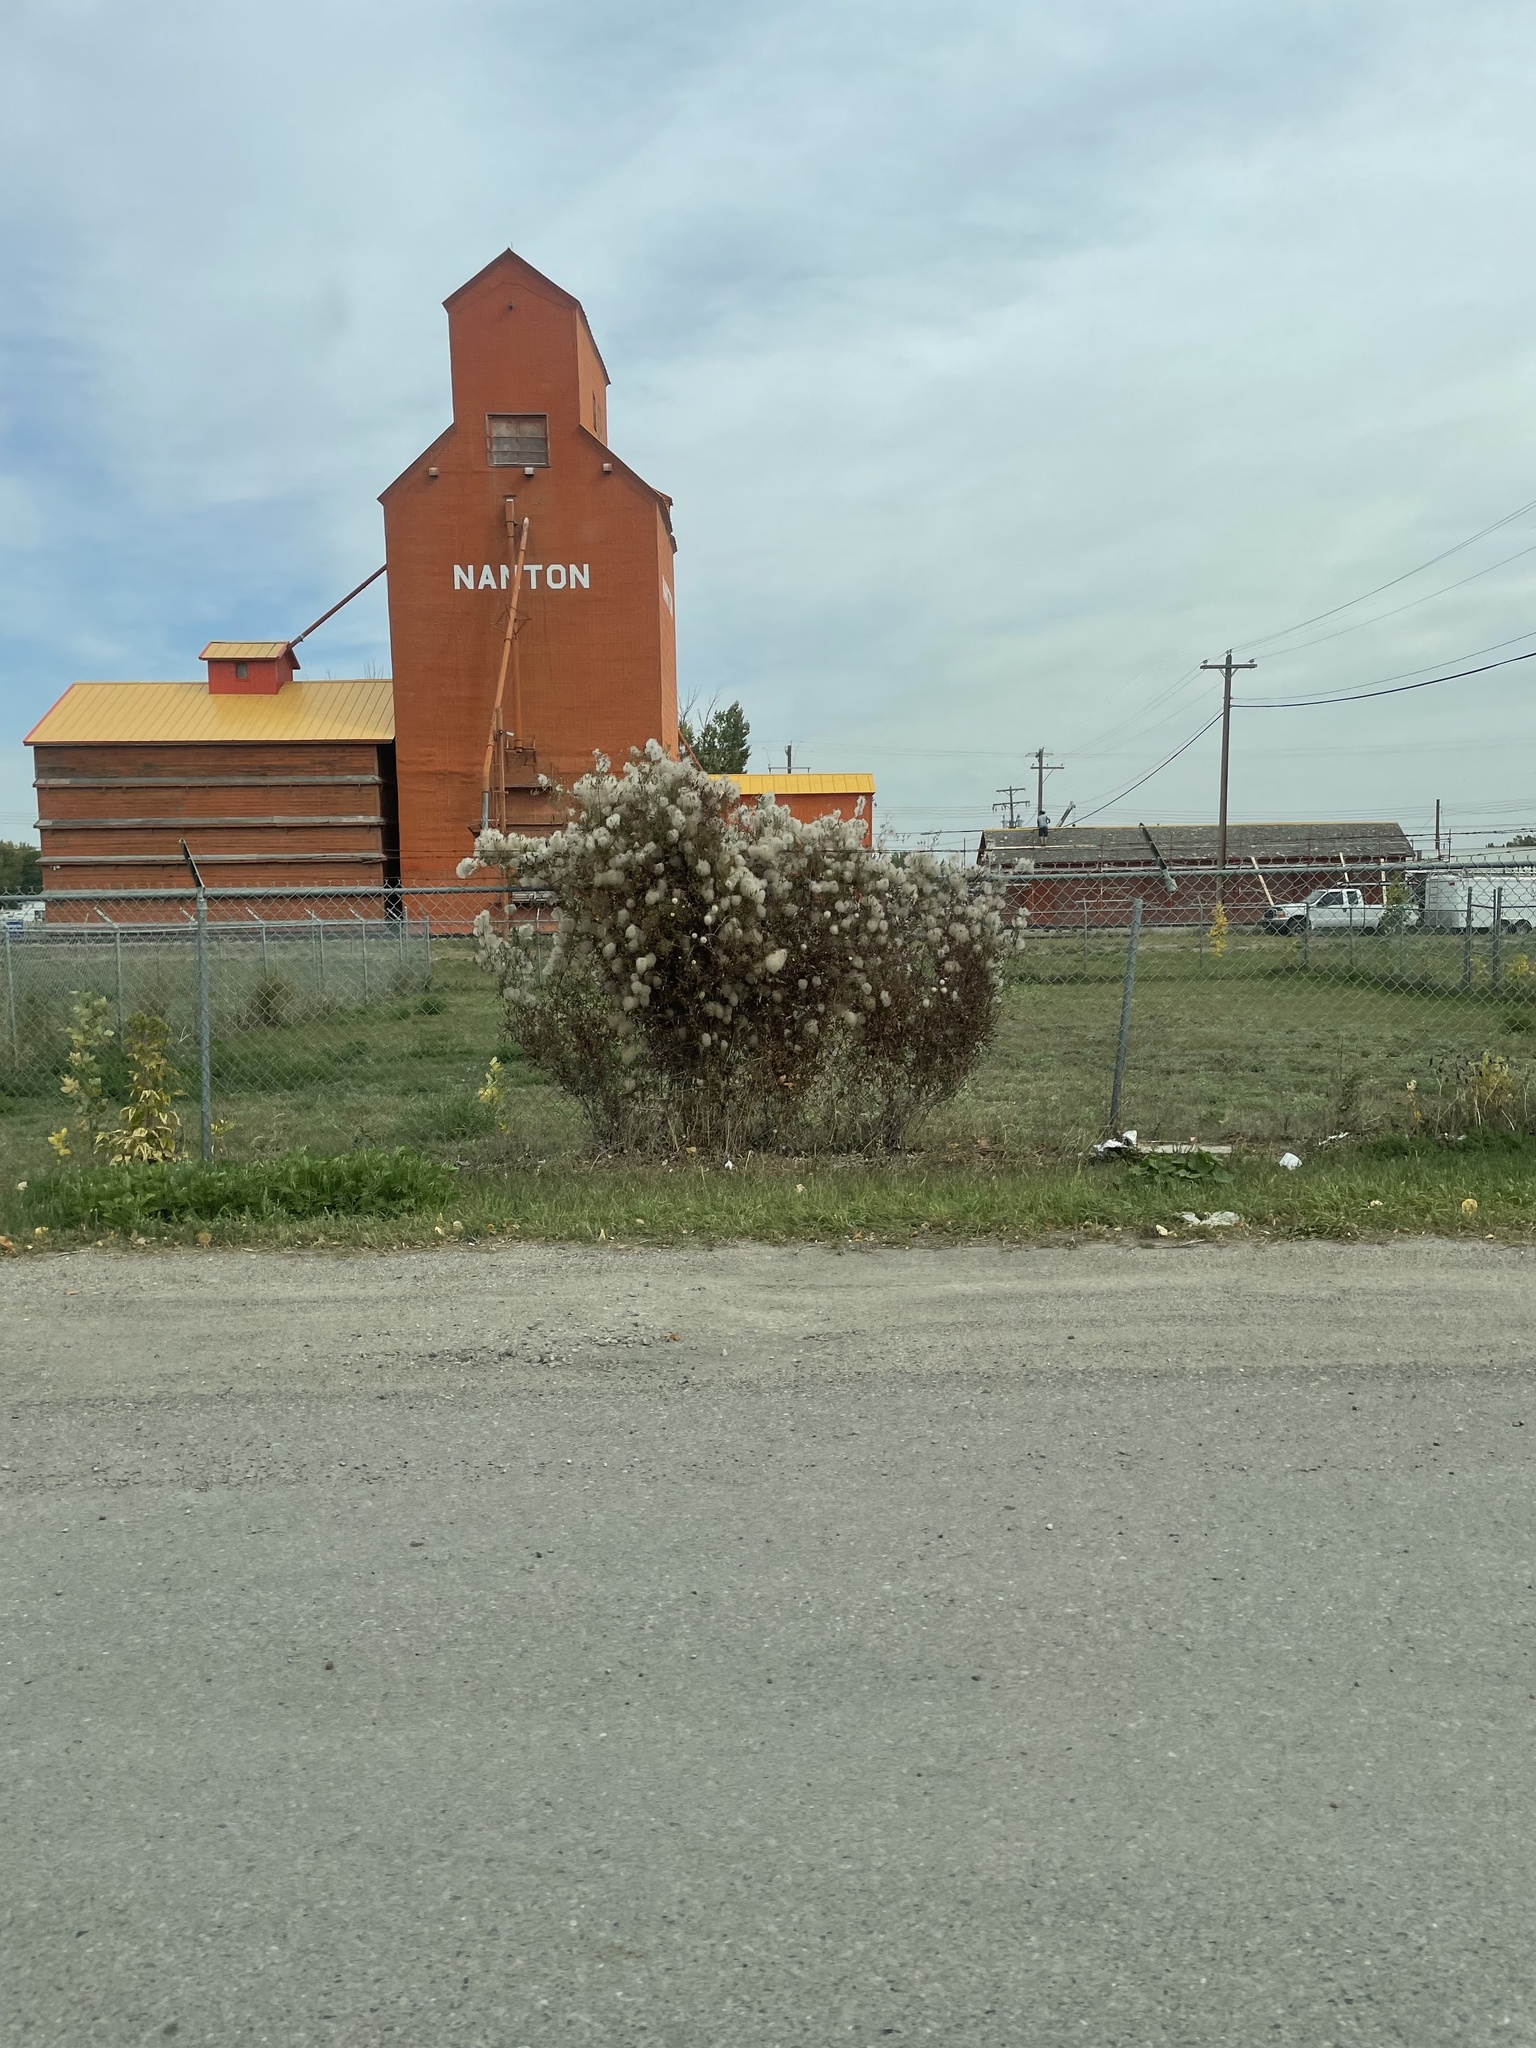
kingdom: Plantae
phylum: Tracheophyta
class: Magnoliopsida
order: Ranunculales
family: Ranunculaceae
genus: Clematis
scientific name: Clematis tangutica
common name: Orange-peel clematis
